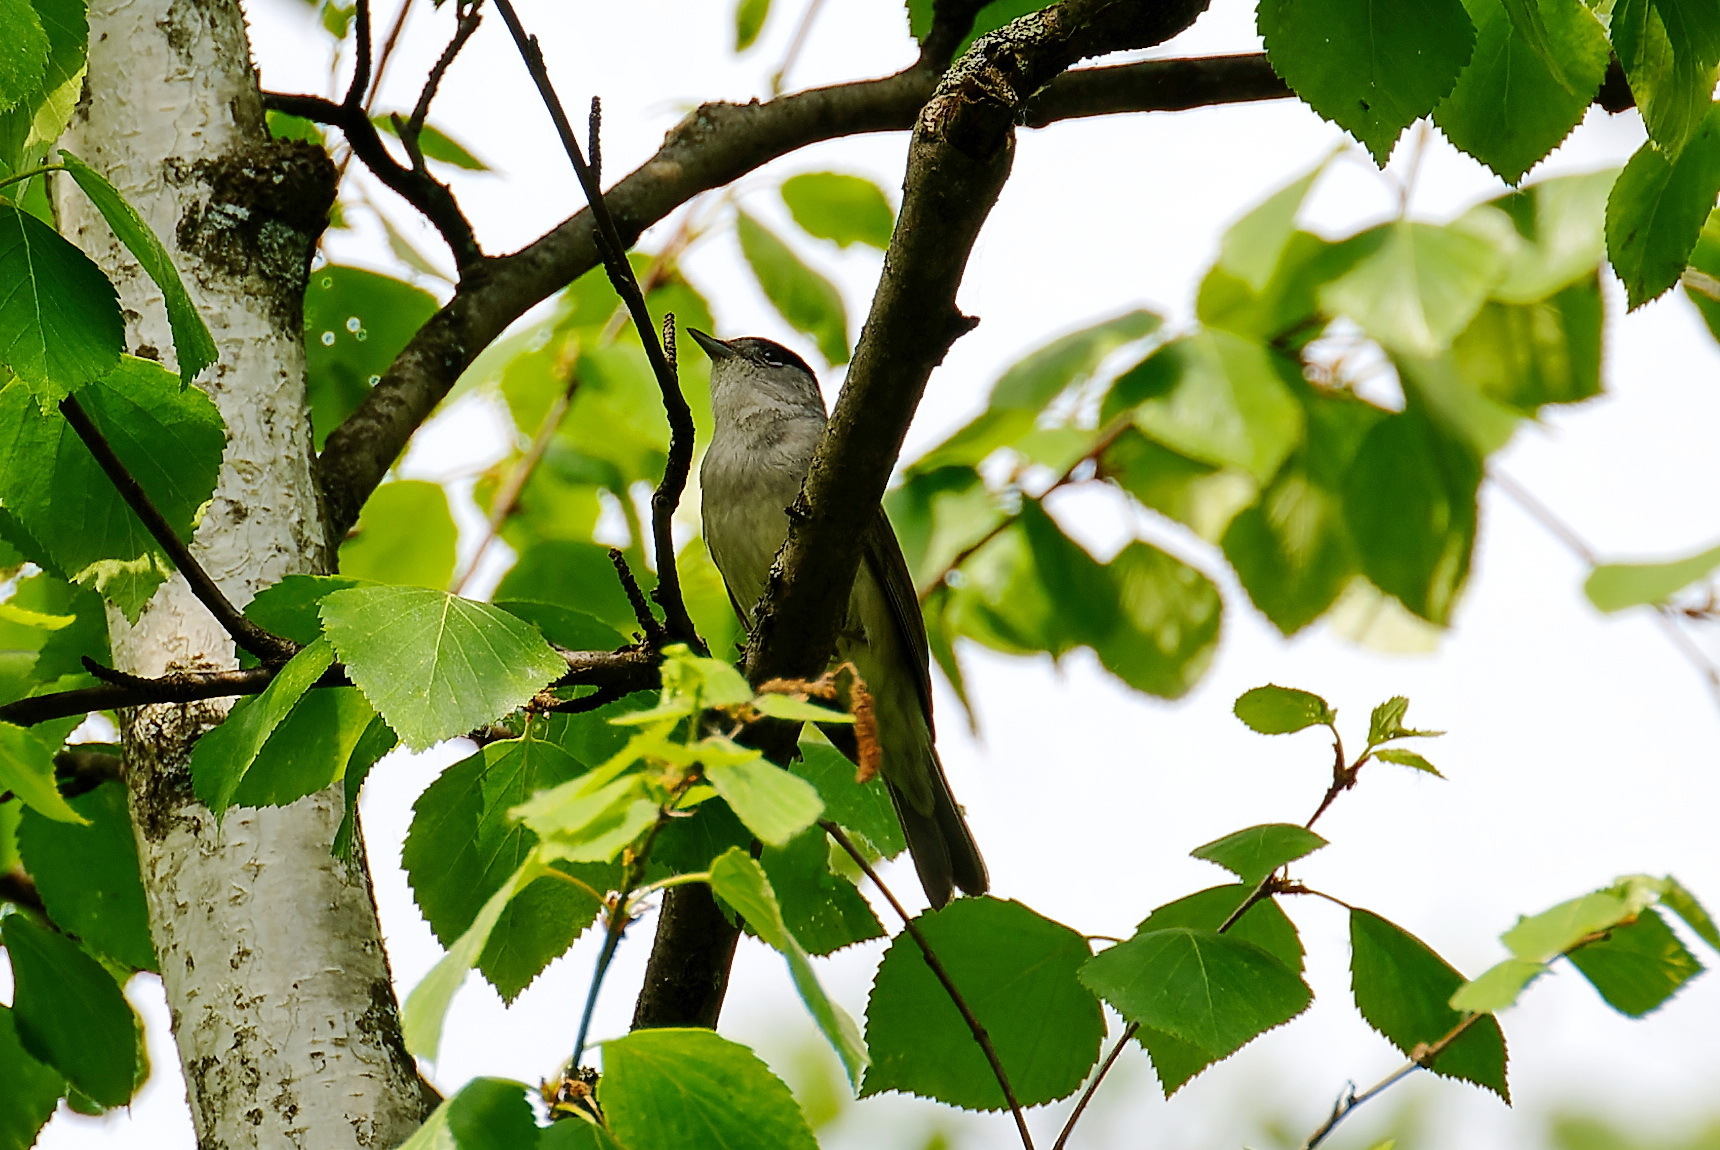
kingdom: Animalia
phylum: Chordata
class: Aves
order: Passeriformes
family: Sylviidae
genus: Sylvia
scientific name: Sylvia atricapilla
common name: Eurasian blackcap
